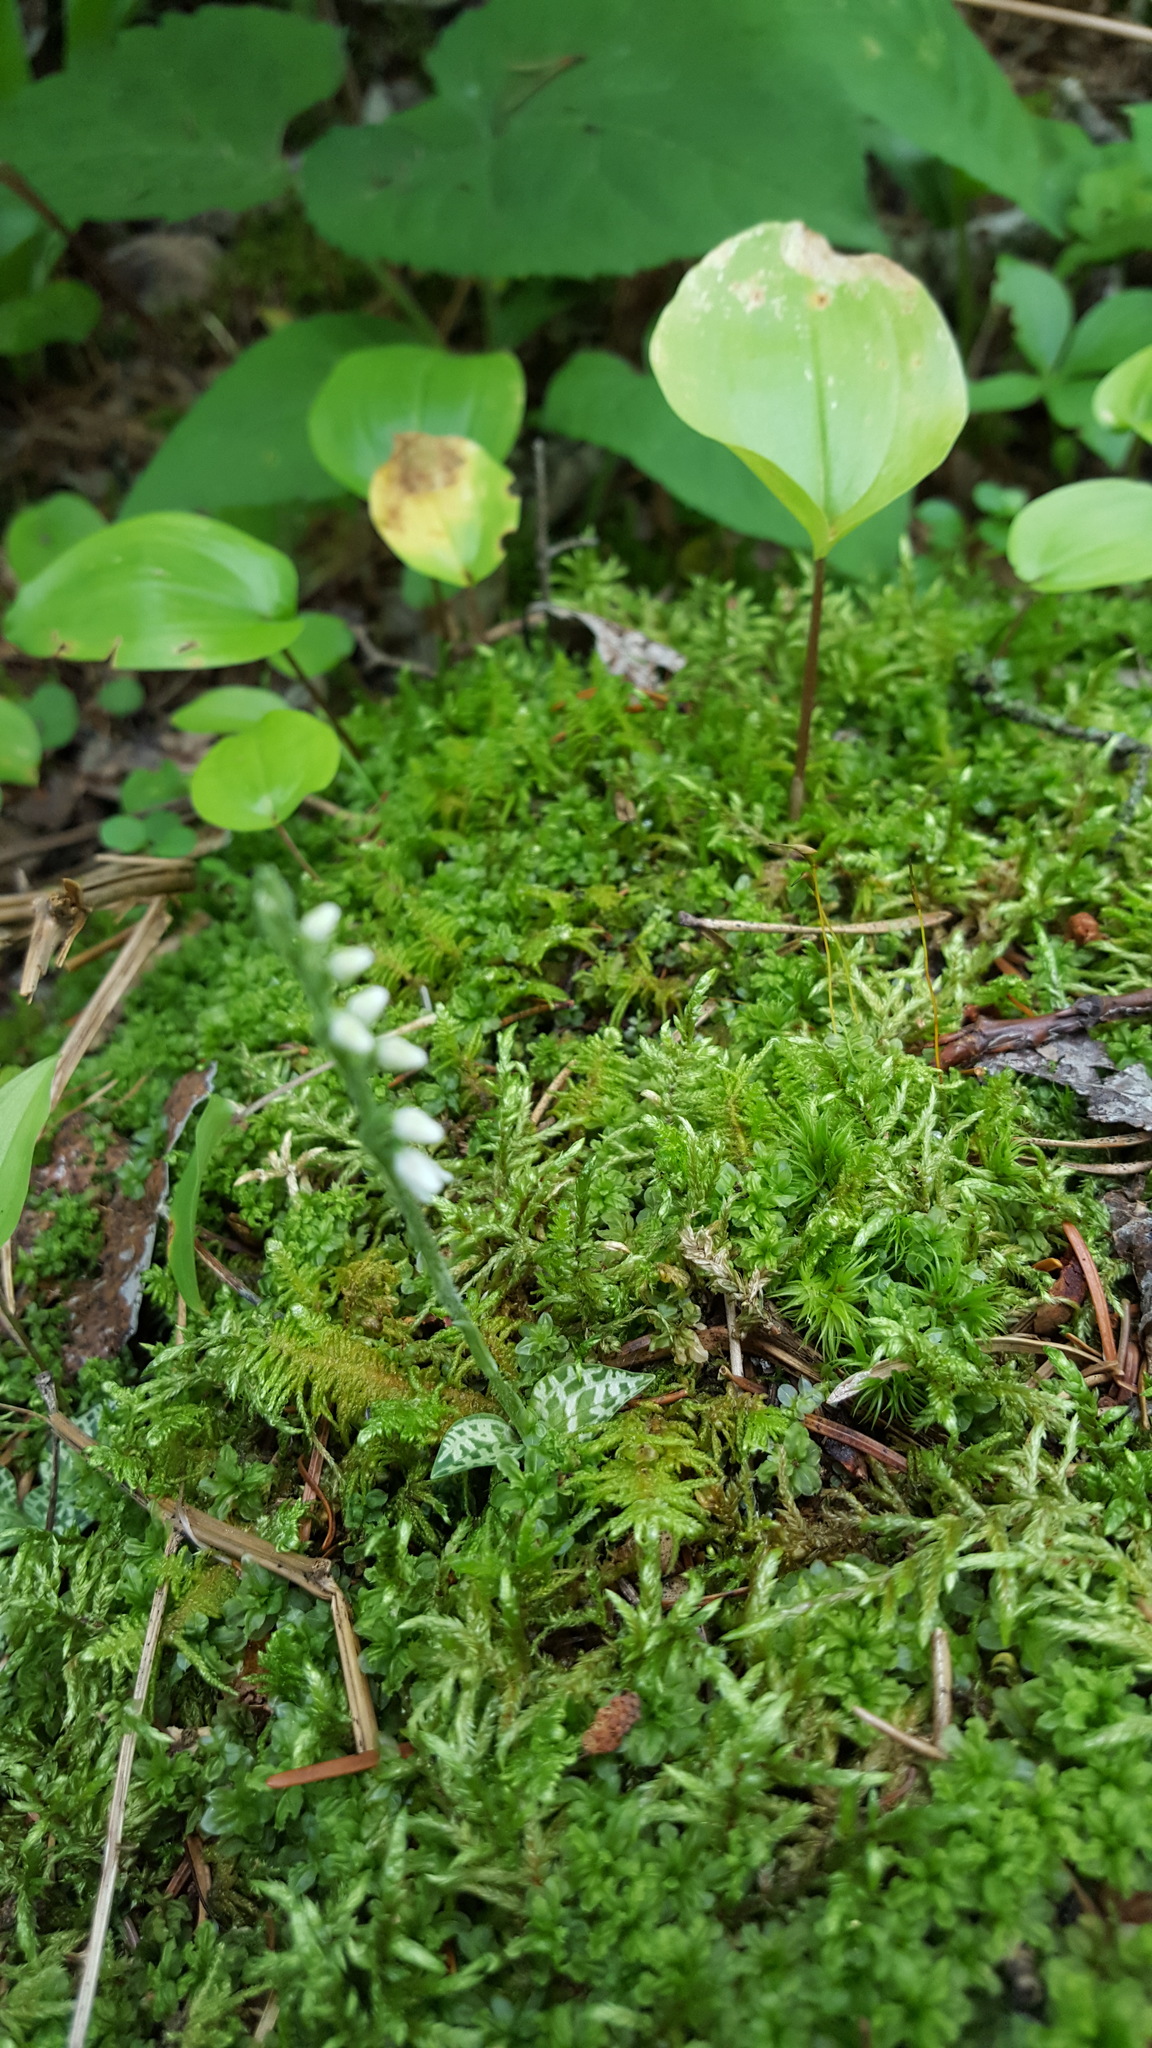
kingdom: Plantae
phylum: Tracheophyta
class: Liliopsida
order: Asparagales
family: Orchidaceae
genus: Goodyera
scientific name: Goodyera repens
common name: Creeping lady's-tresses
